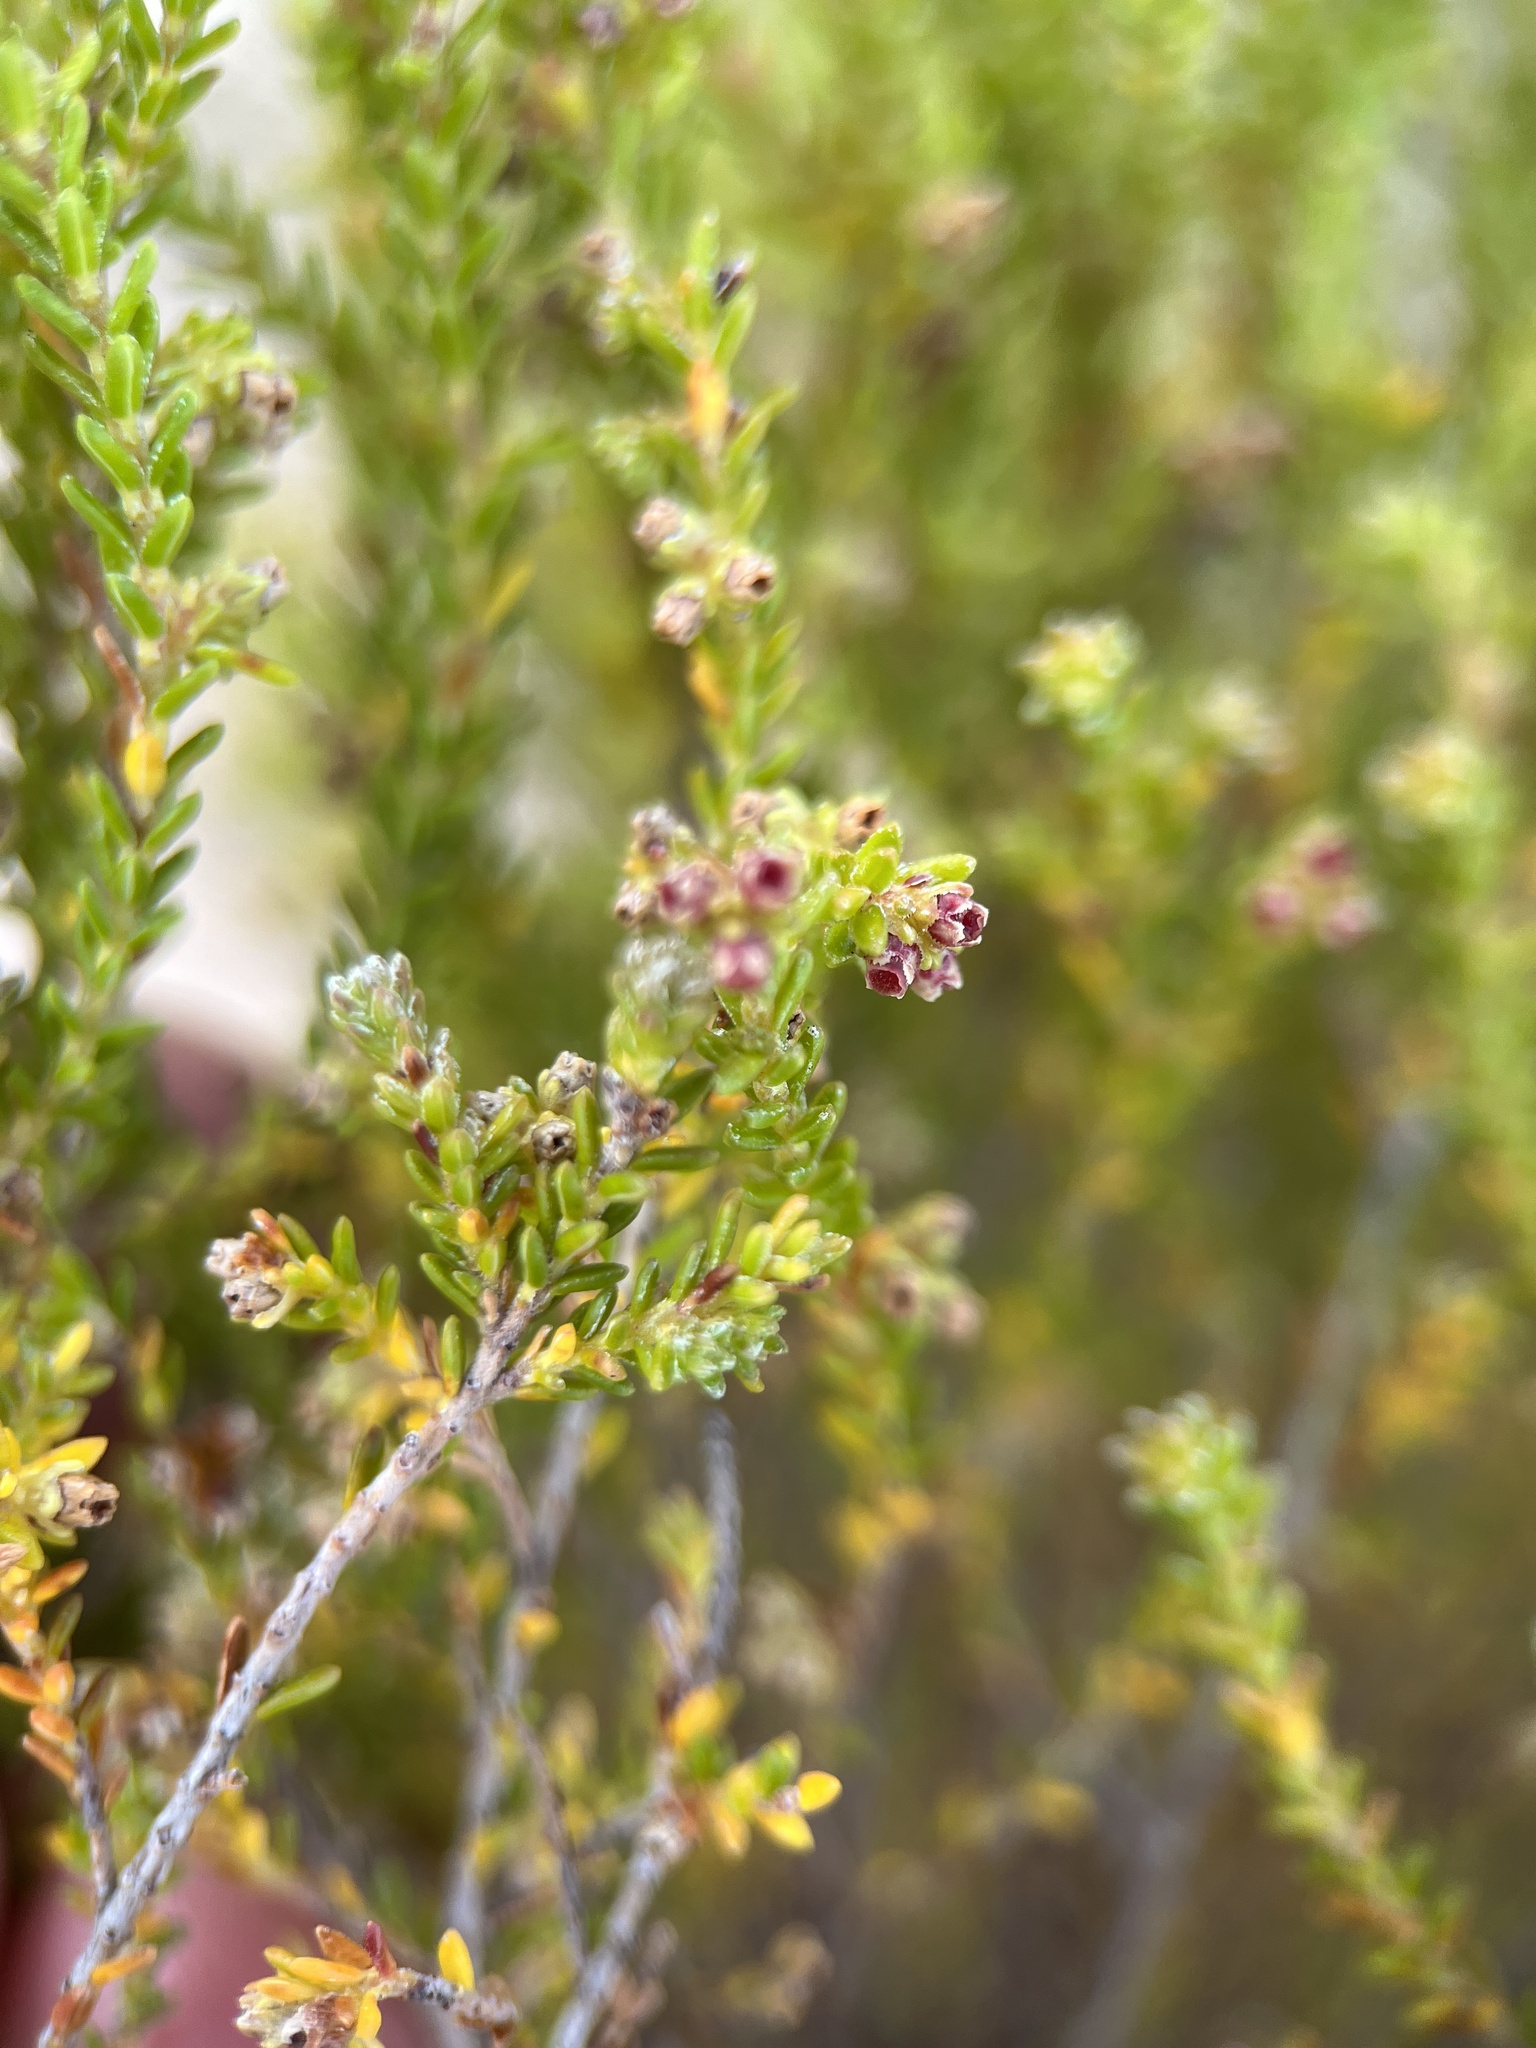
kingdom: Plantae
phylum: Tracheophyta
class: Magnoliopsida
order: Ericales
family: Ericaceae
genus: Erica
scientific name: Erica serrata
